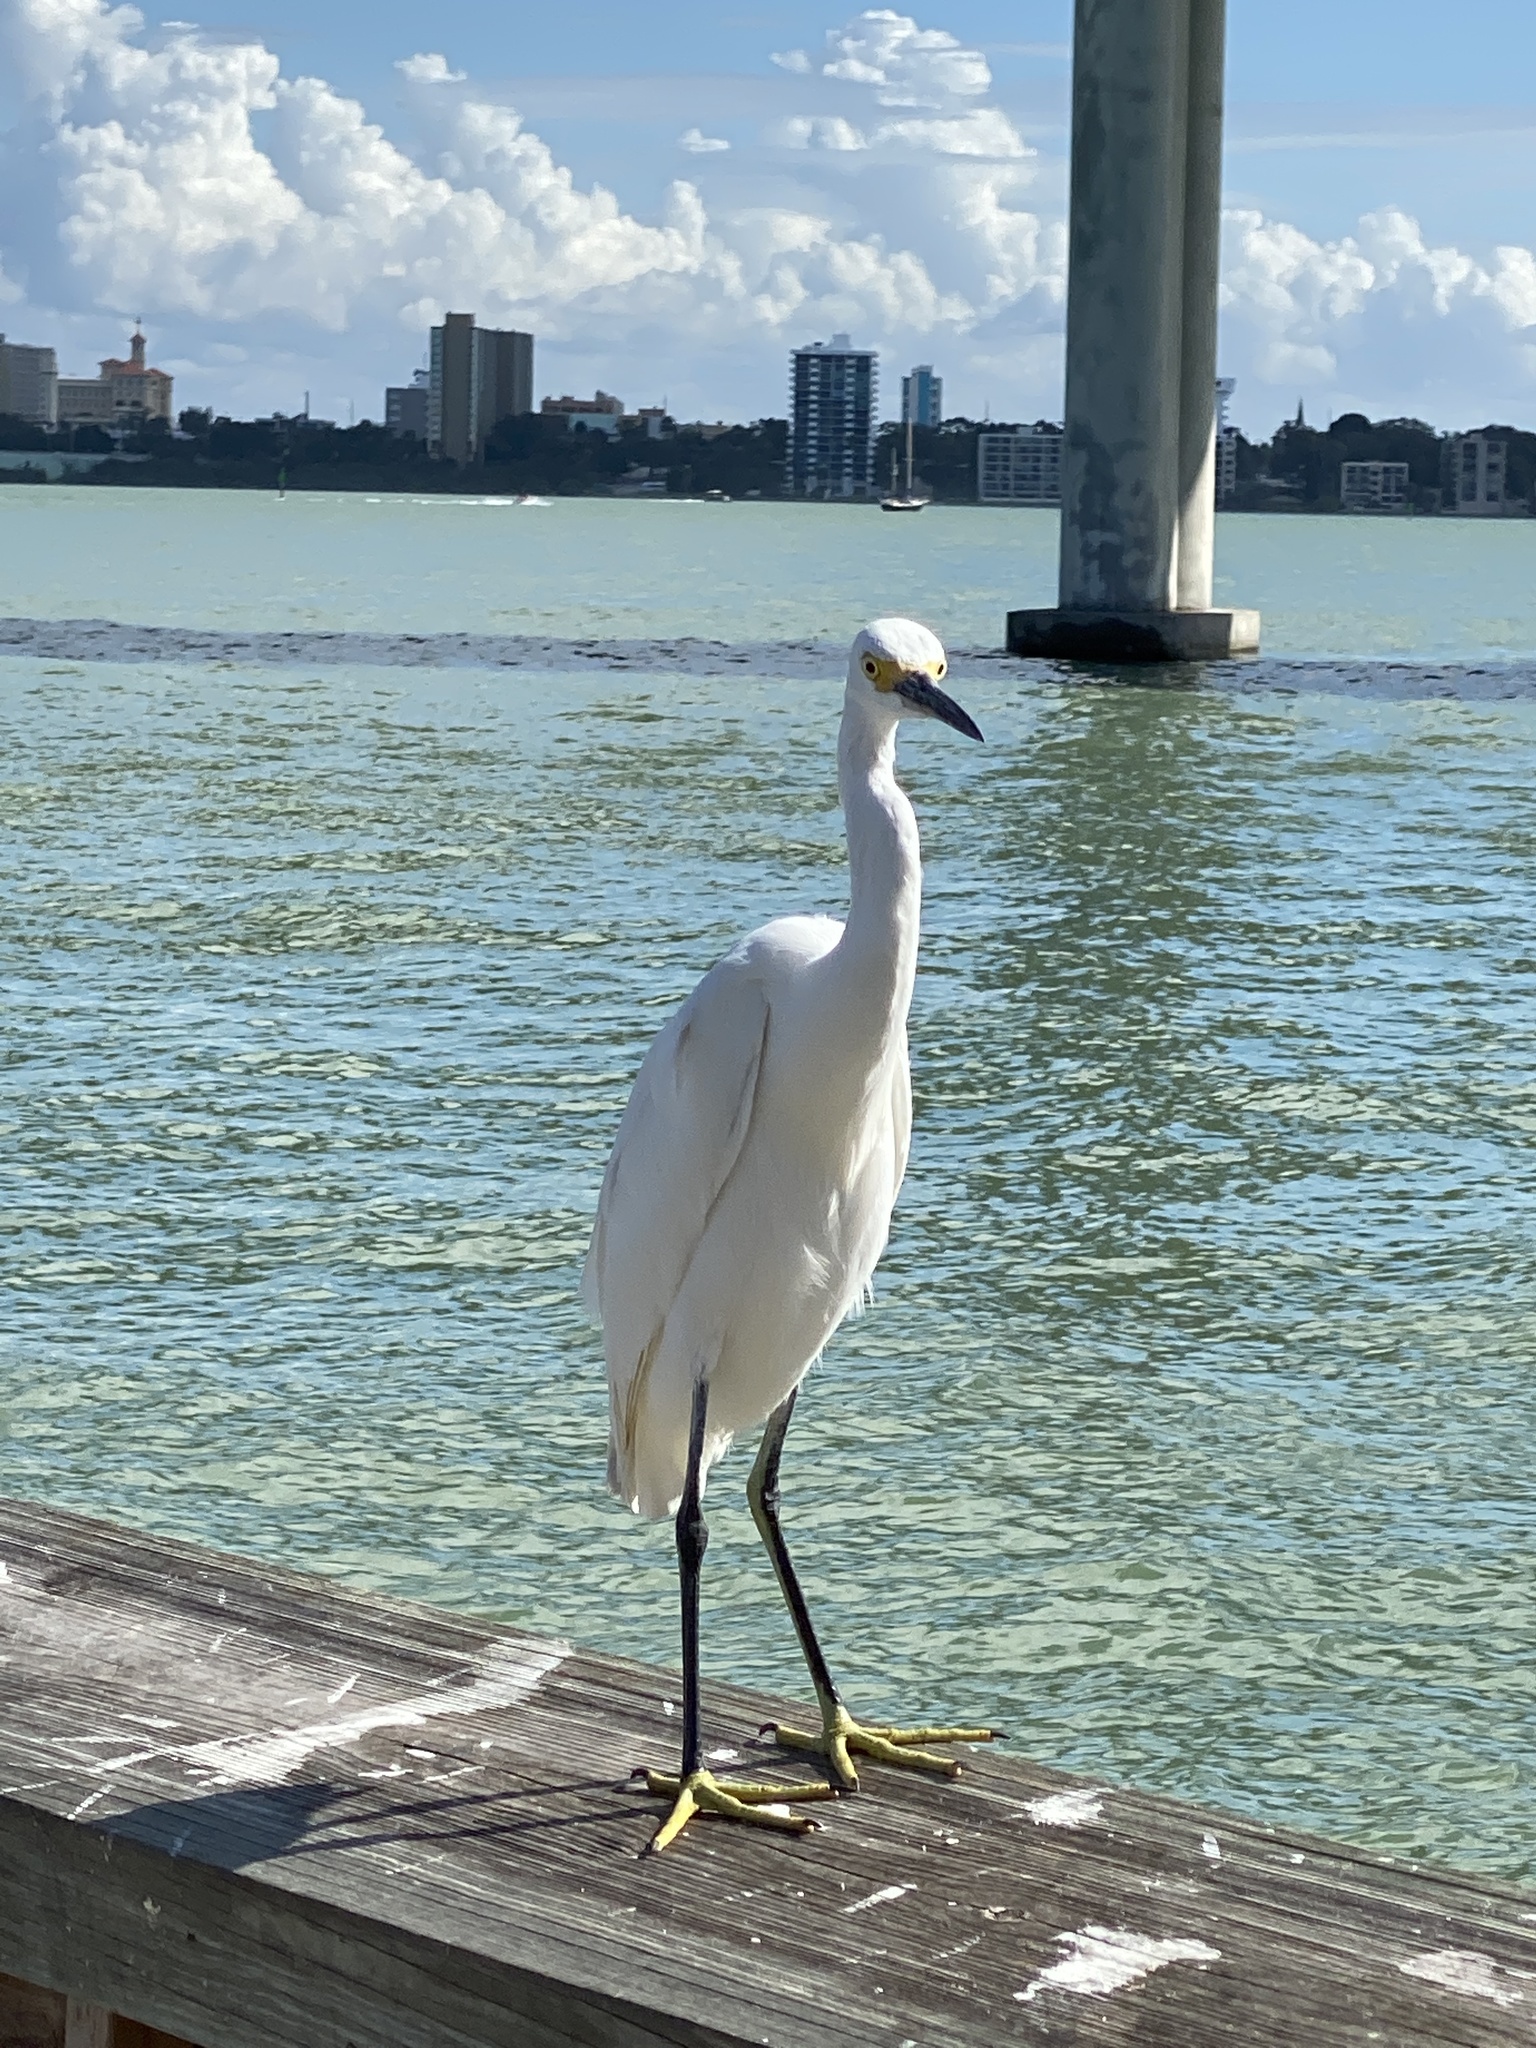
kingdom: Animalia
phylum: Chordata
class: Aves
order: Pelecaniformes
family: Ardeidae
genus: Egretta
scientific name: Egretta thula
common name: Snowy egret
